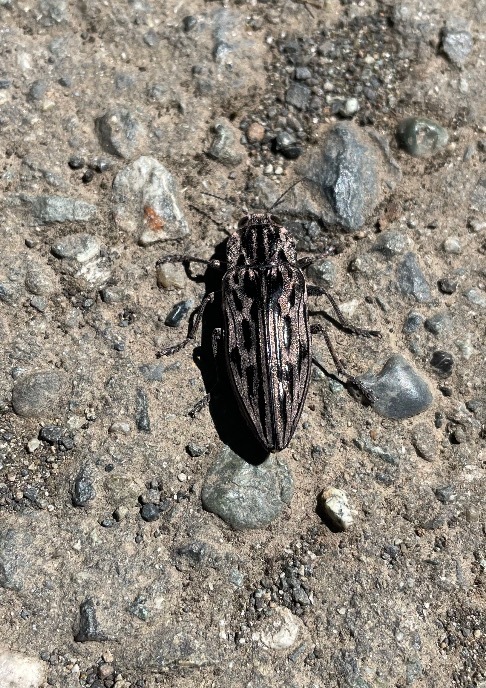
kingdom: Animalia
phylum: Arthropoda
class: Insecta
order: Coleoptera
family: Buprestidae
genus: Chalcophora
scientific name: Chalcophora angulicollis
